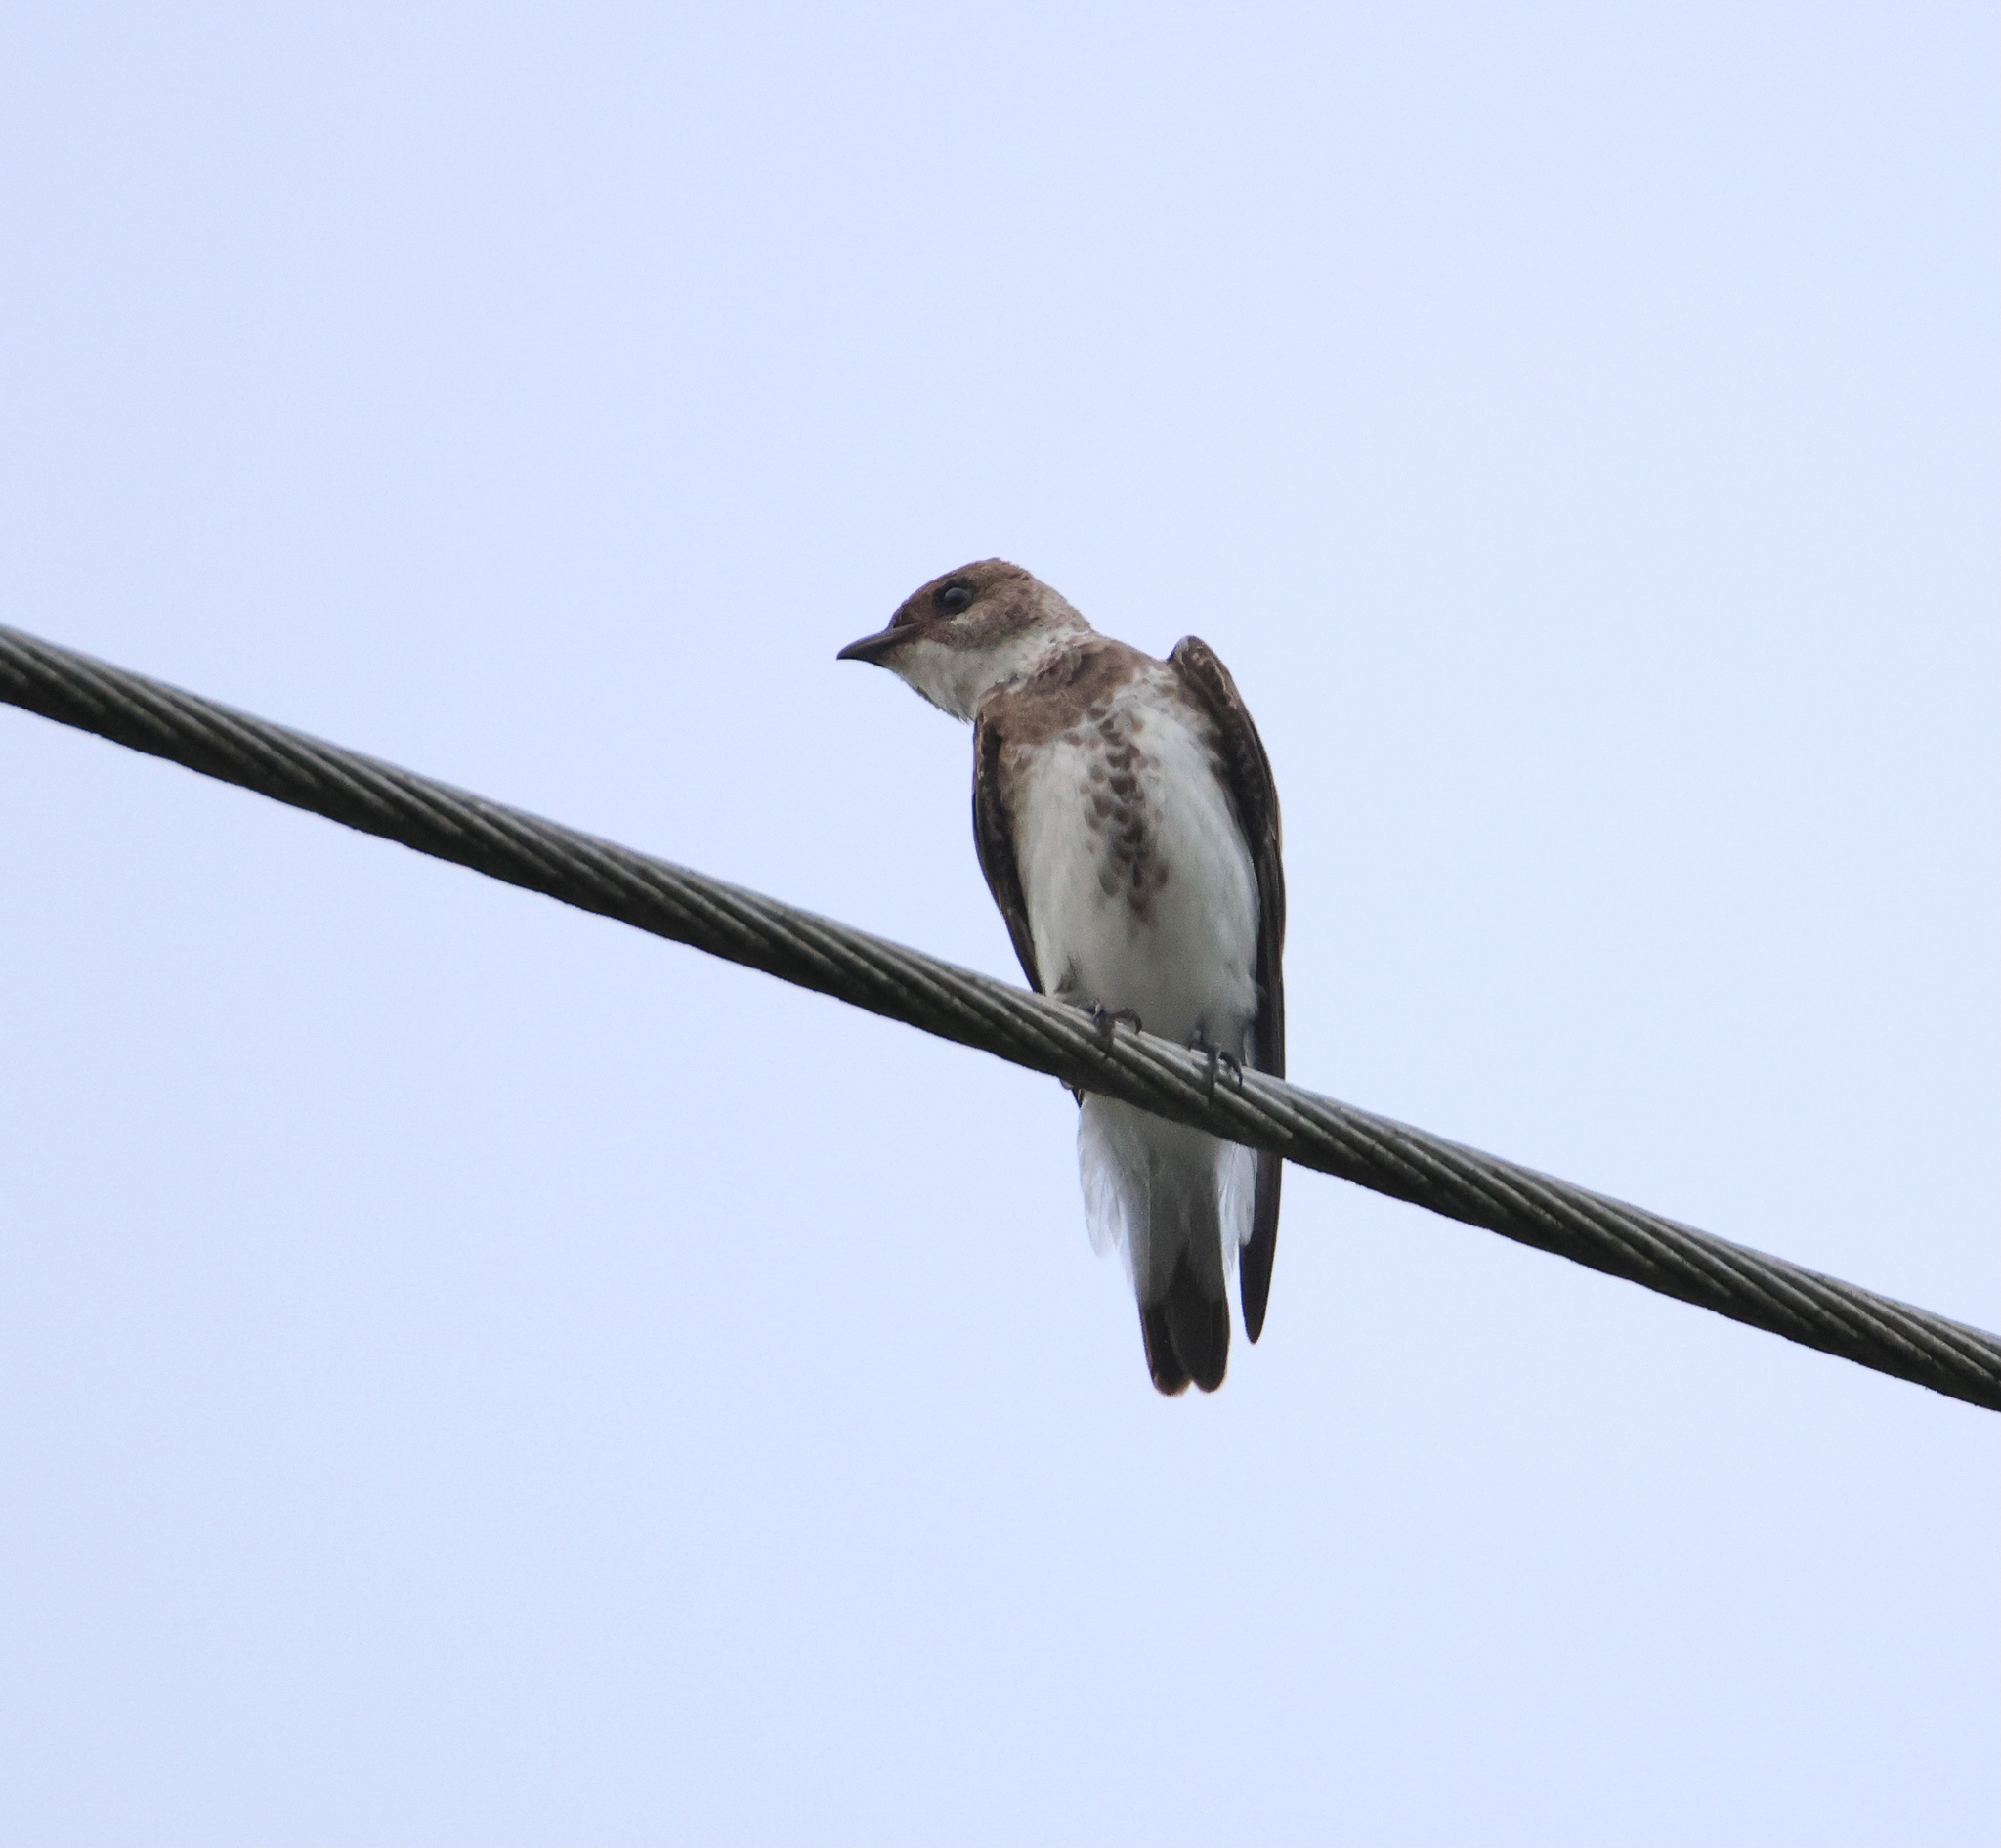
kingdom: Animalia
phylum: Chordata
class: Aves
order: Passeriformes
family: Hirundinidae
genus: Progne
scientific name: Progne tapera
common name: Brown-chested martin
